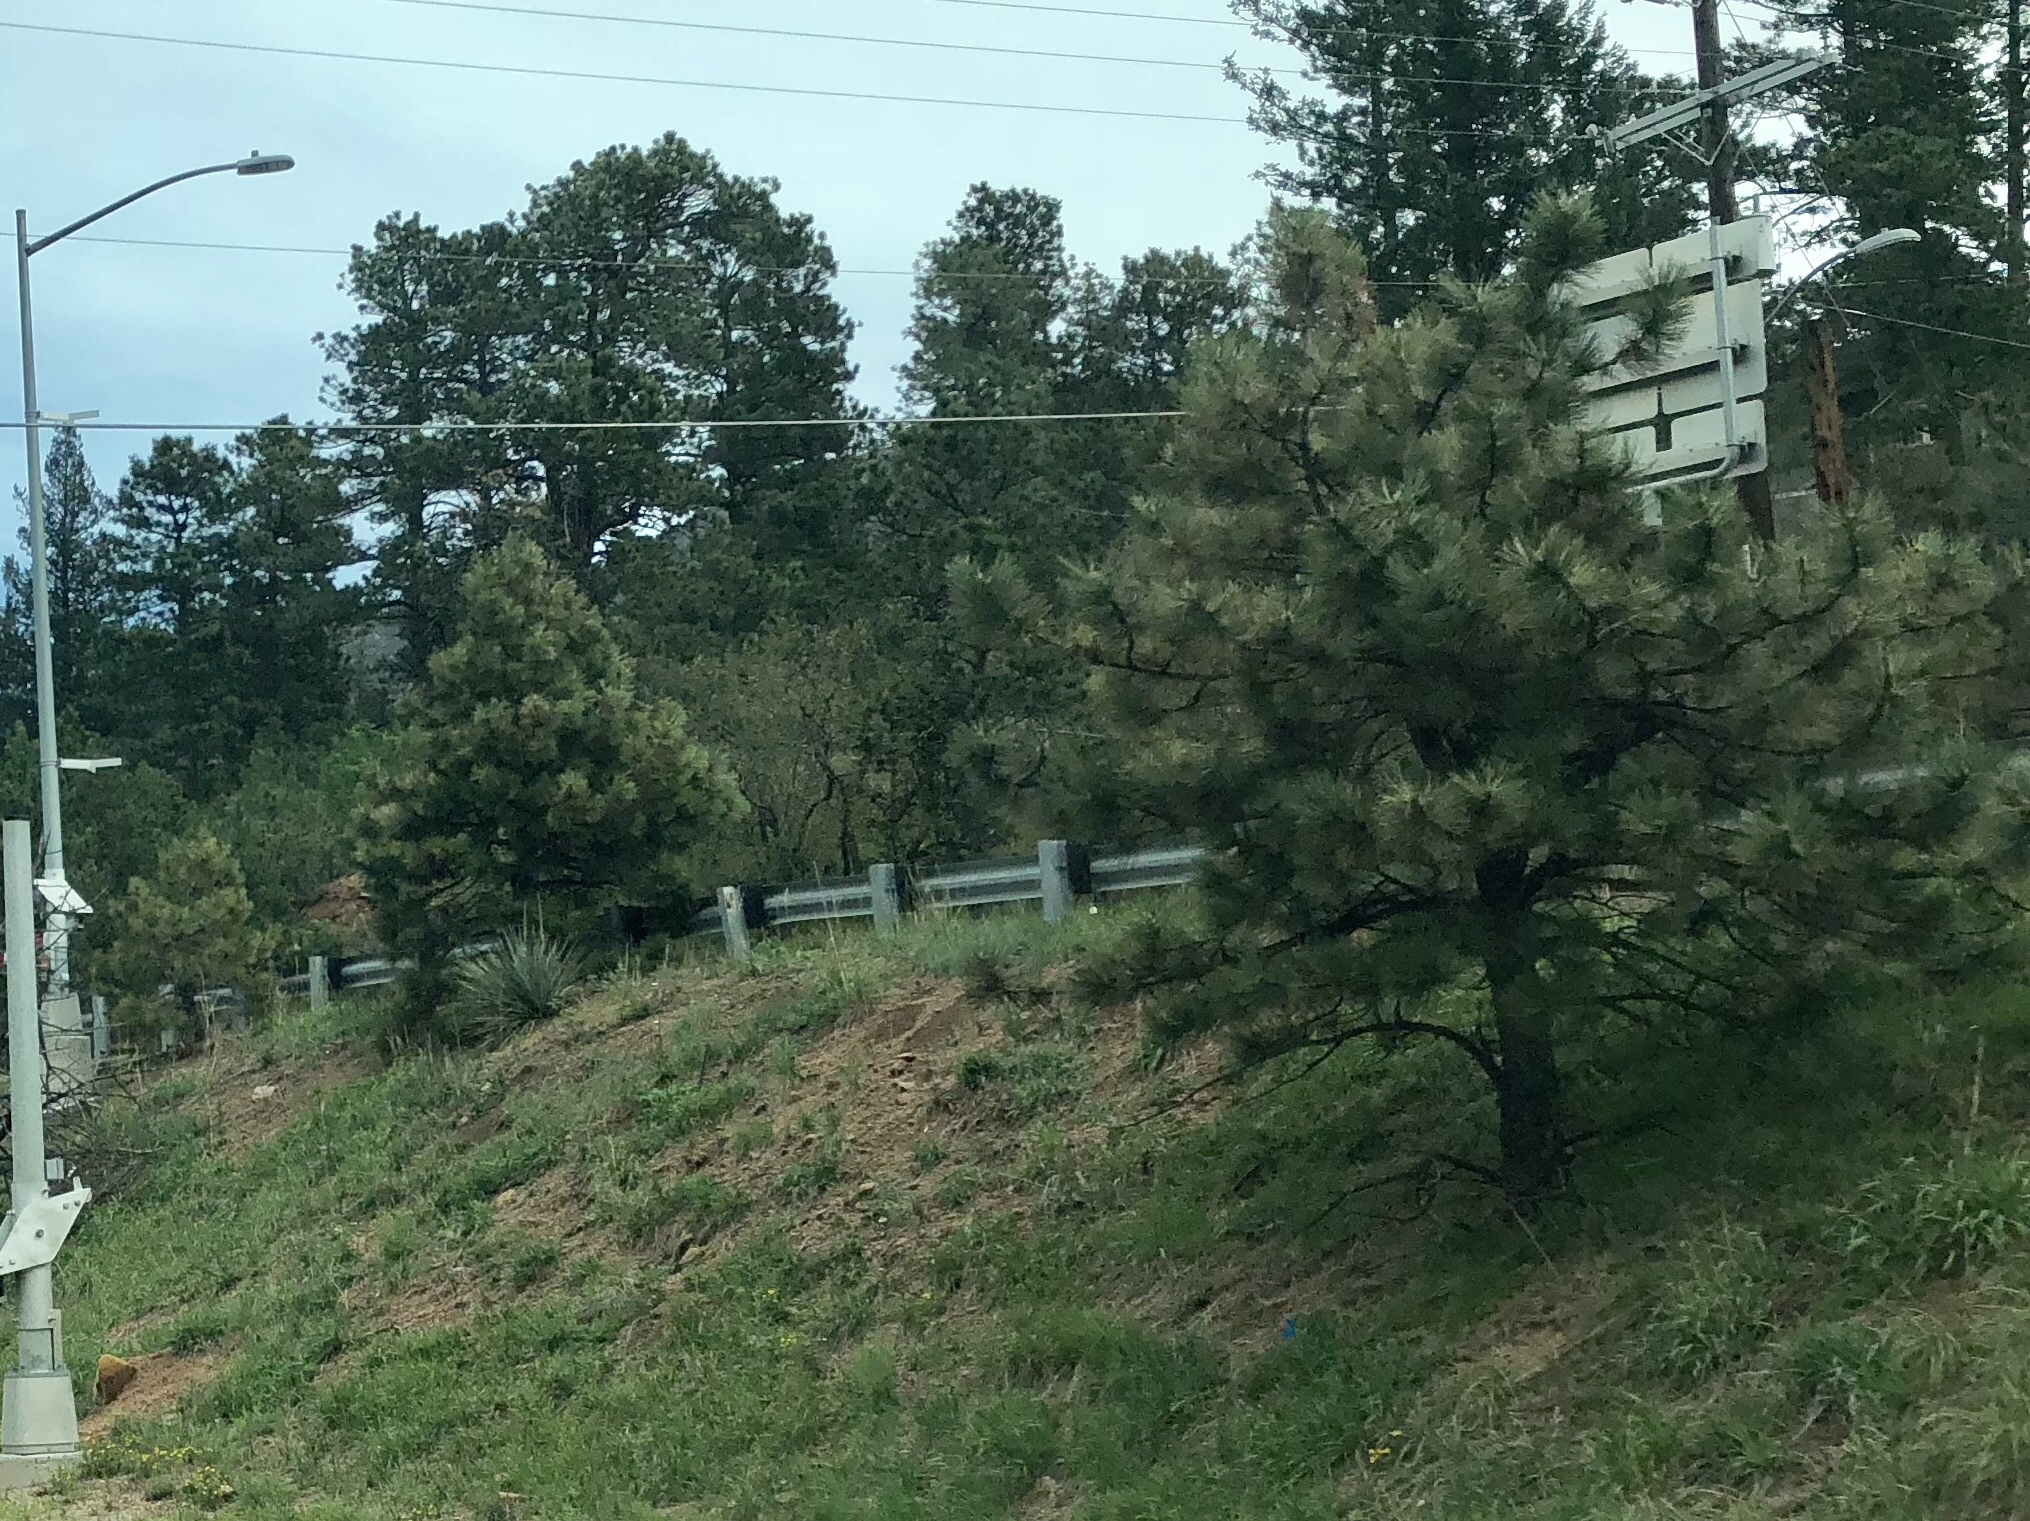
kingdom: Plantae
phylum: Tracheophyta
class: Pinopsida
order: Pinales
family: Pinaceae
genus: Pinus
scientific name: Pinus ponderosa
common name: Western yellow-pine
